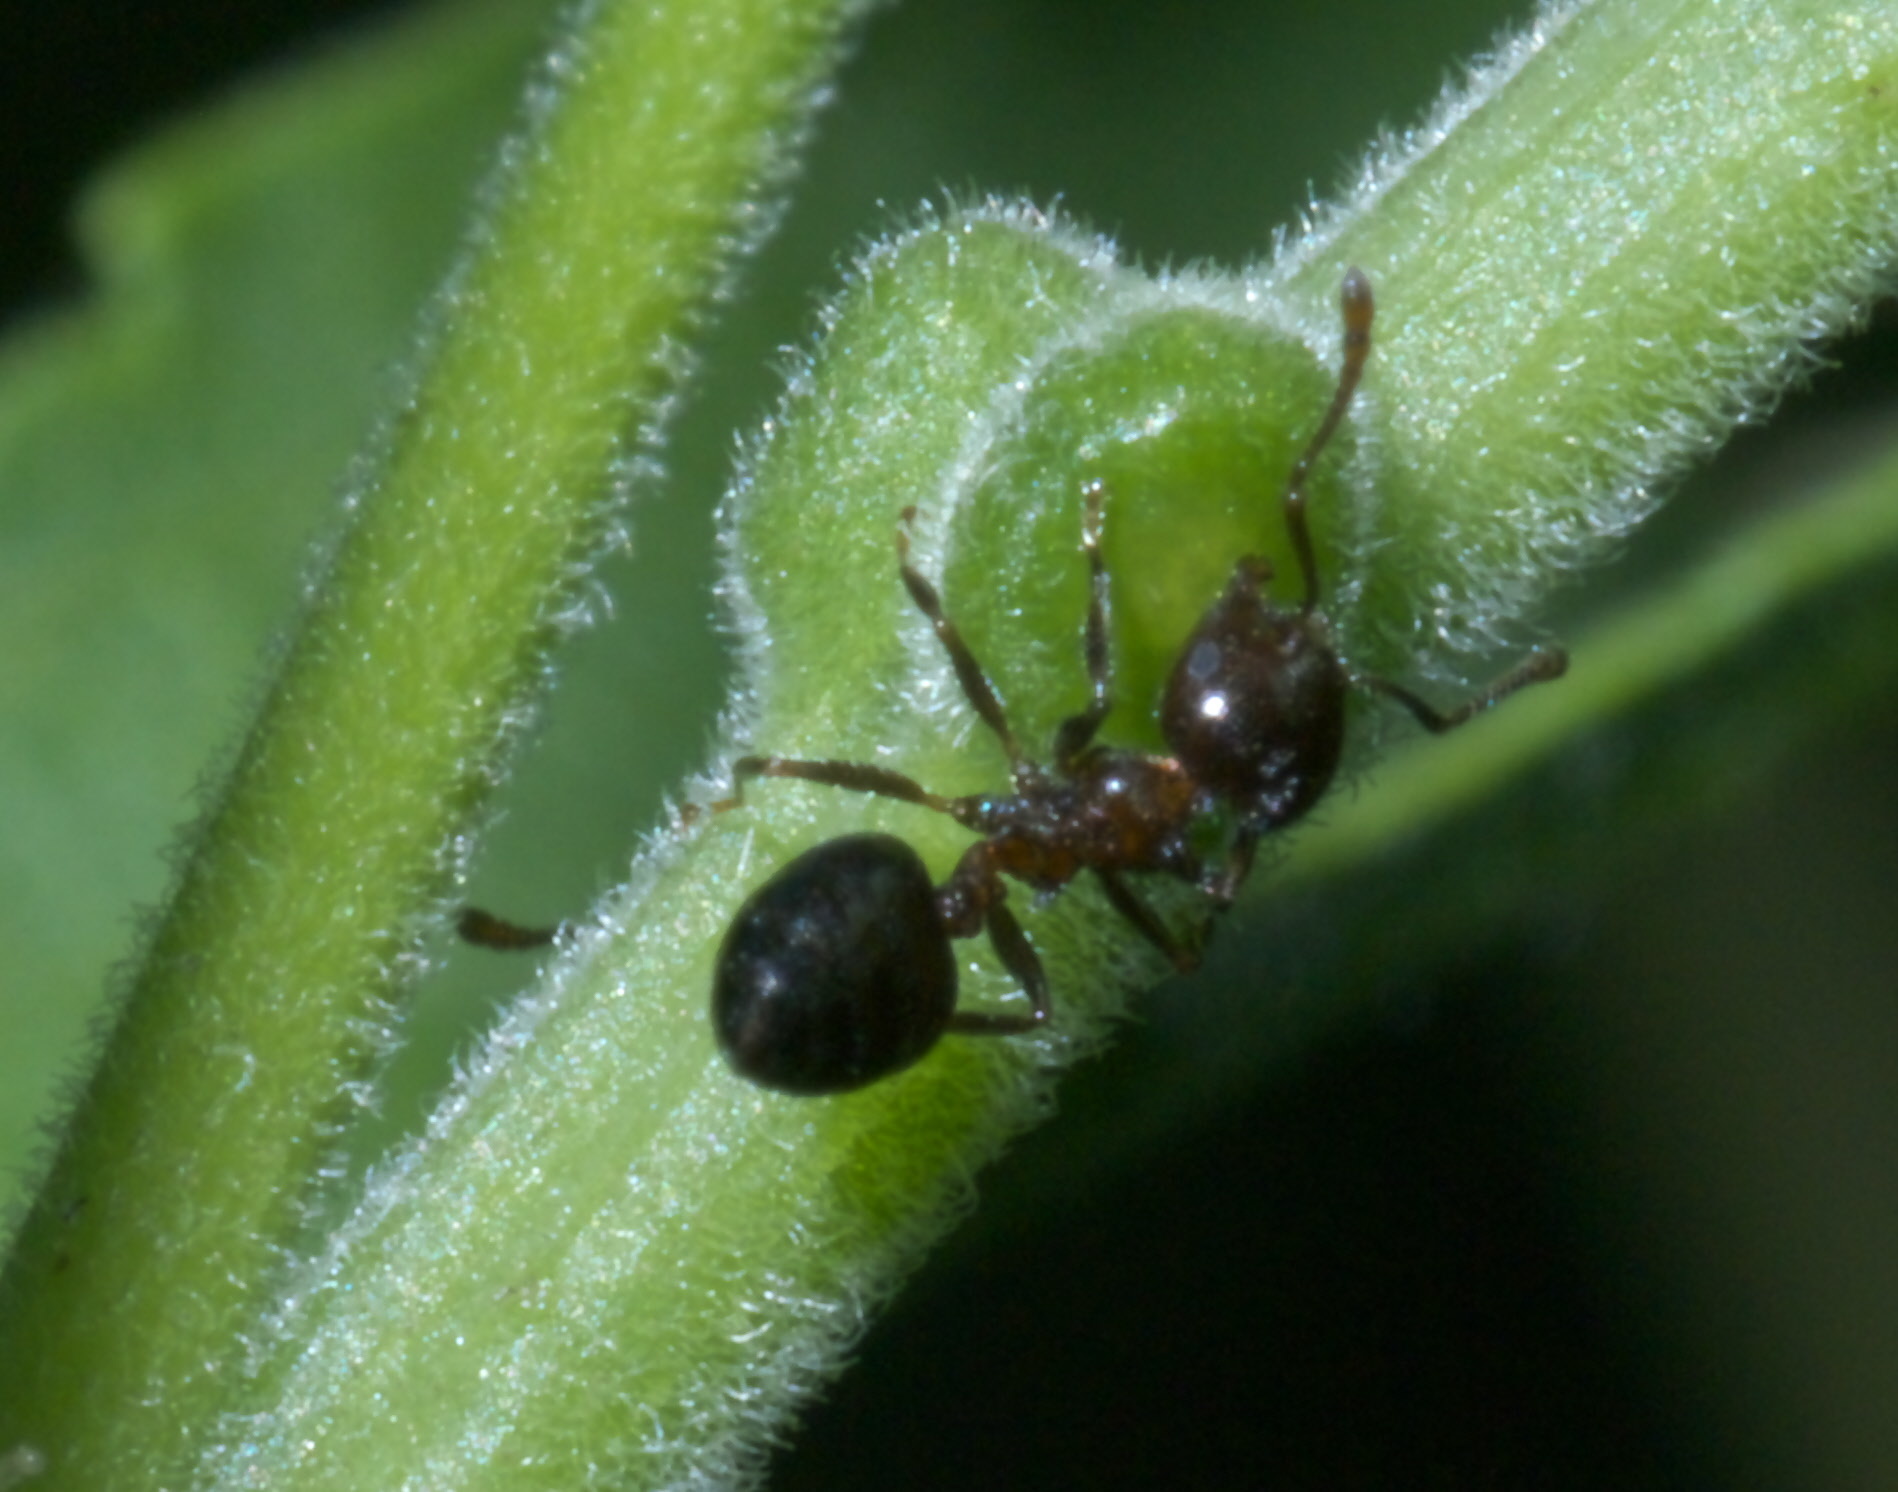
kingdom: Animalia
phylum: Arthropoda
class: Insecta
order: Hymenoptera
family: Formicidae
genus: Crematogaster
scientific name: Crematogaster ashmeadi
